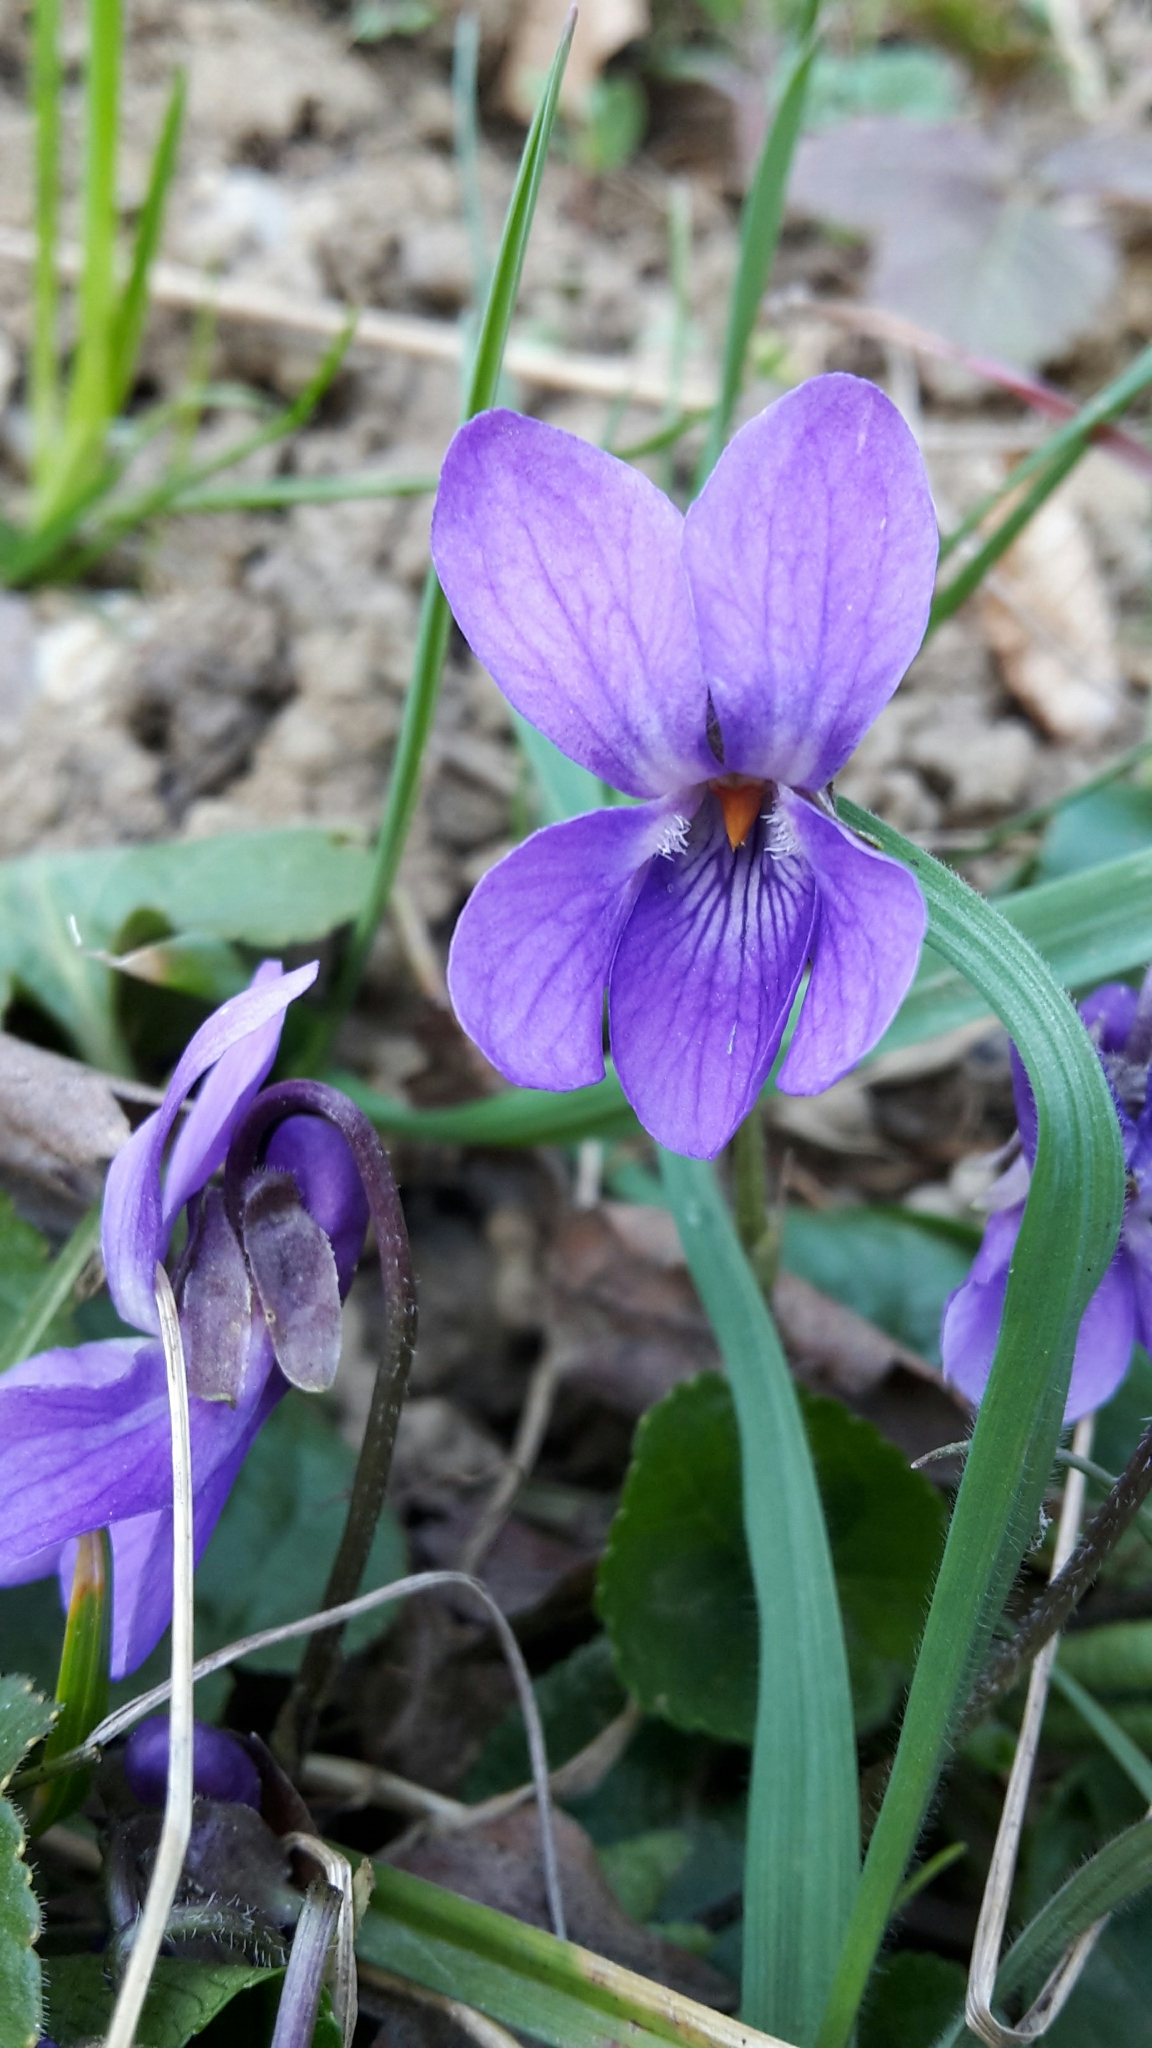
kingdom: Plantae
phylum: Tracheophyta
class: Magnoliopsida
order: Malpighiales
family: Violaceae
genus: Viola
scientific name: Viola odorata
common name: Sweet violet
